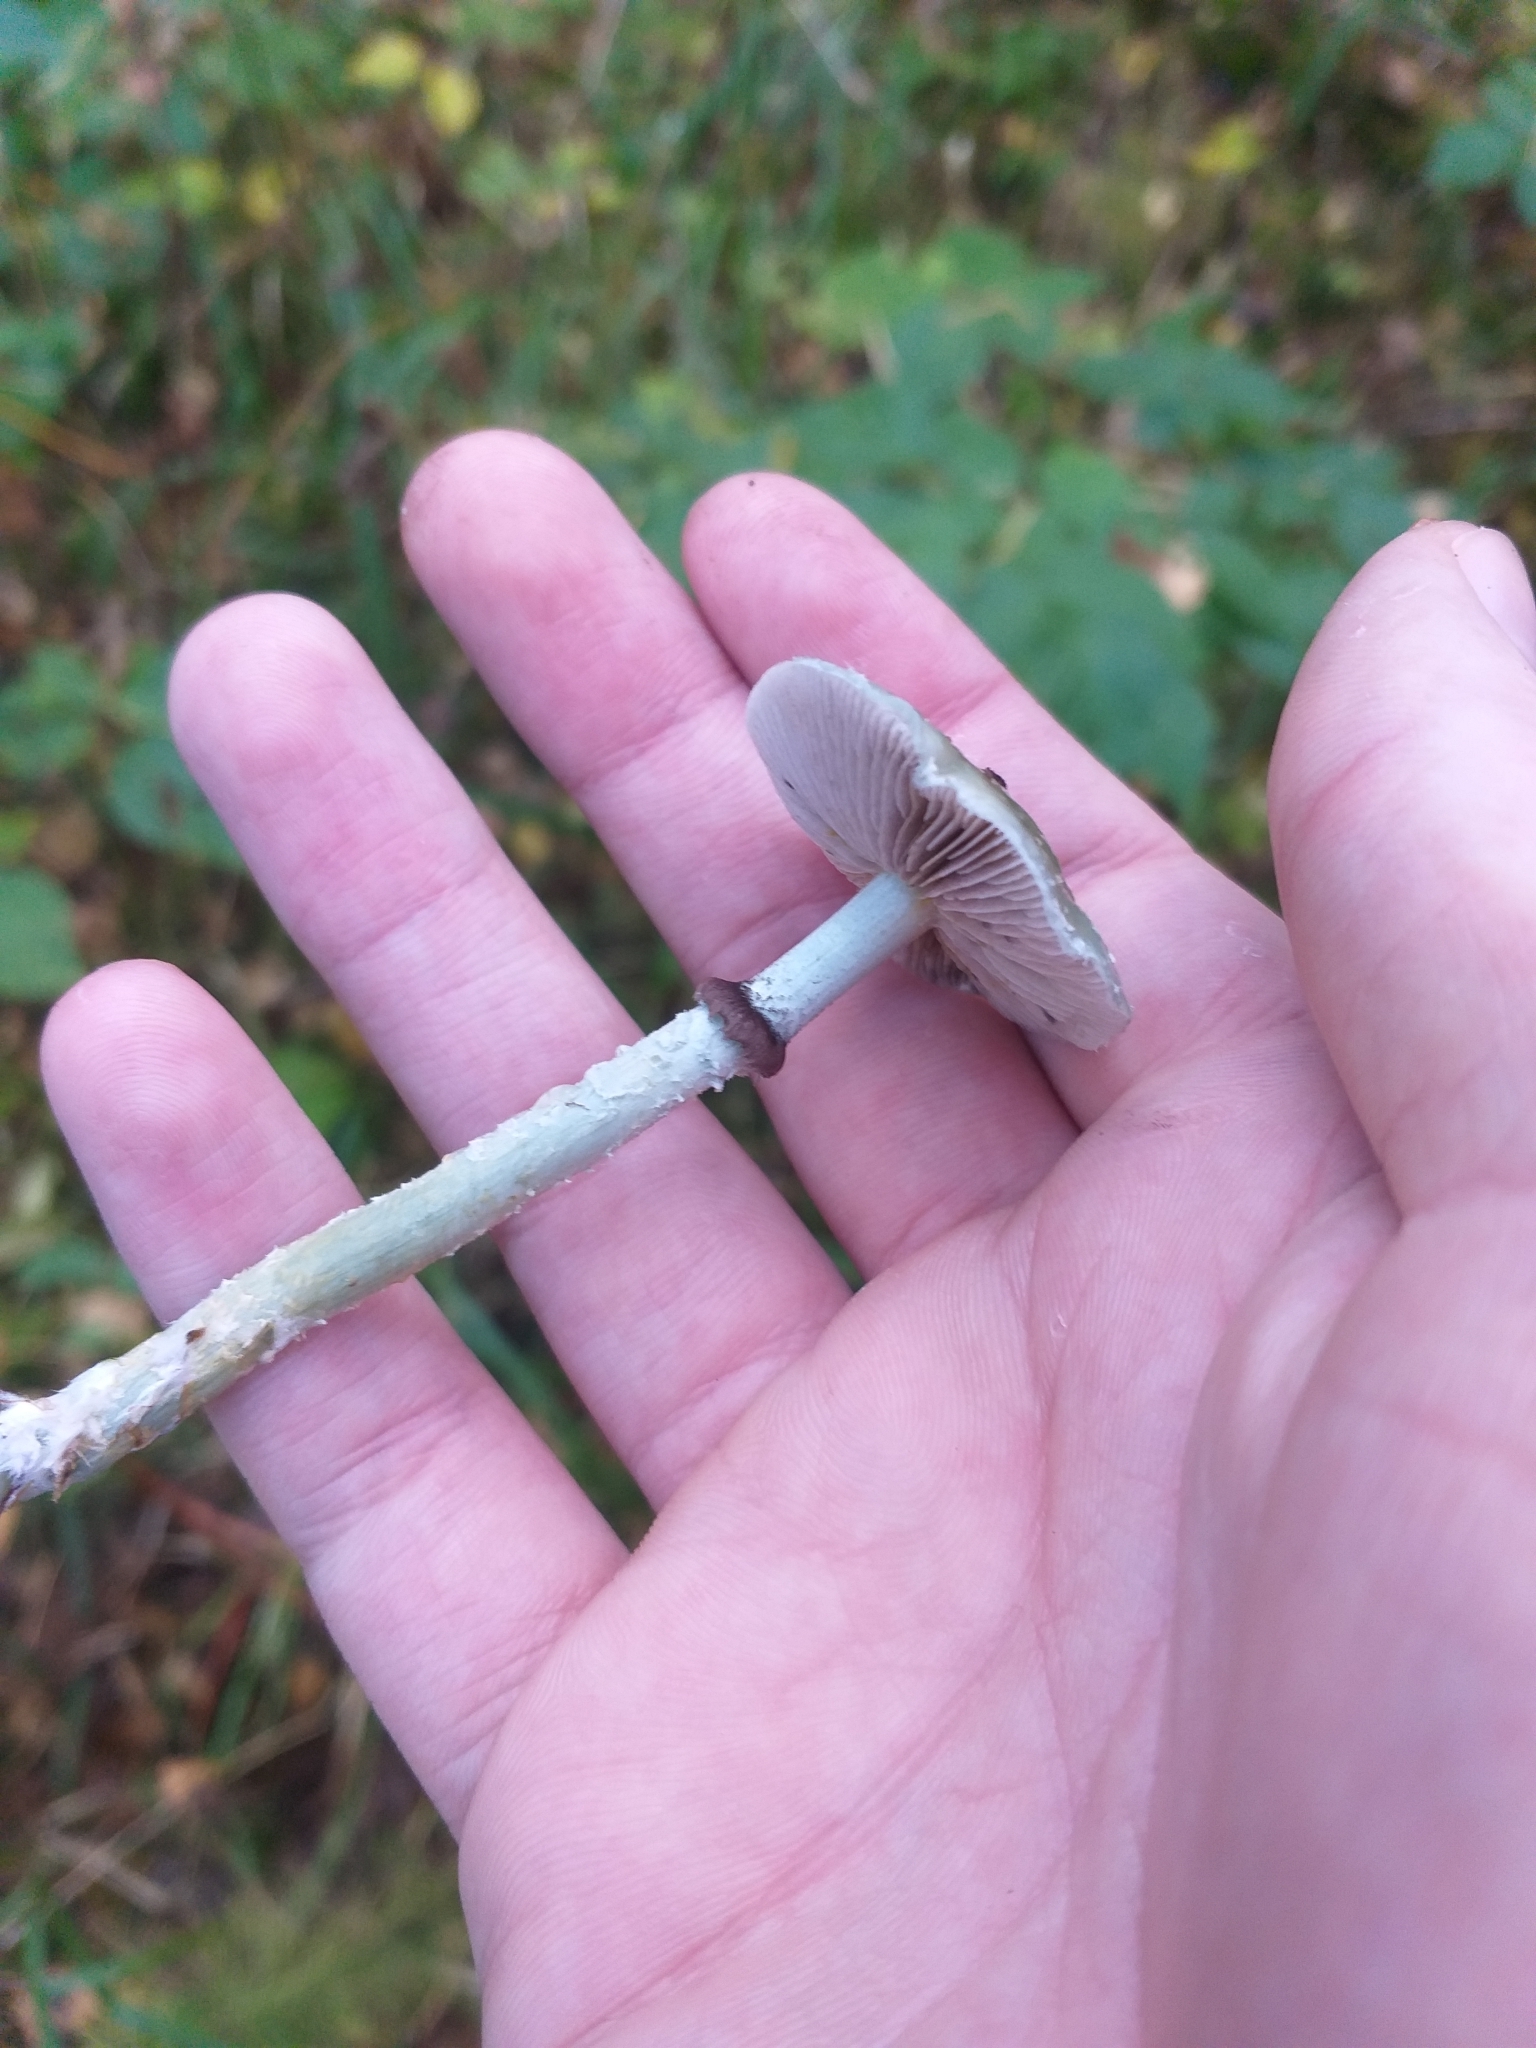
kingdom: Fungi
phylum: Basidiomycota
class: Agaricomycetes
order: Agaricales
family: Strophariaceae
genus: Stropharia
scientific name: Stropharia aeruginosa
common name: Verdigris roundhead
